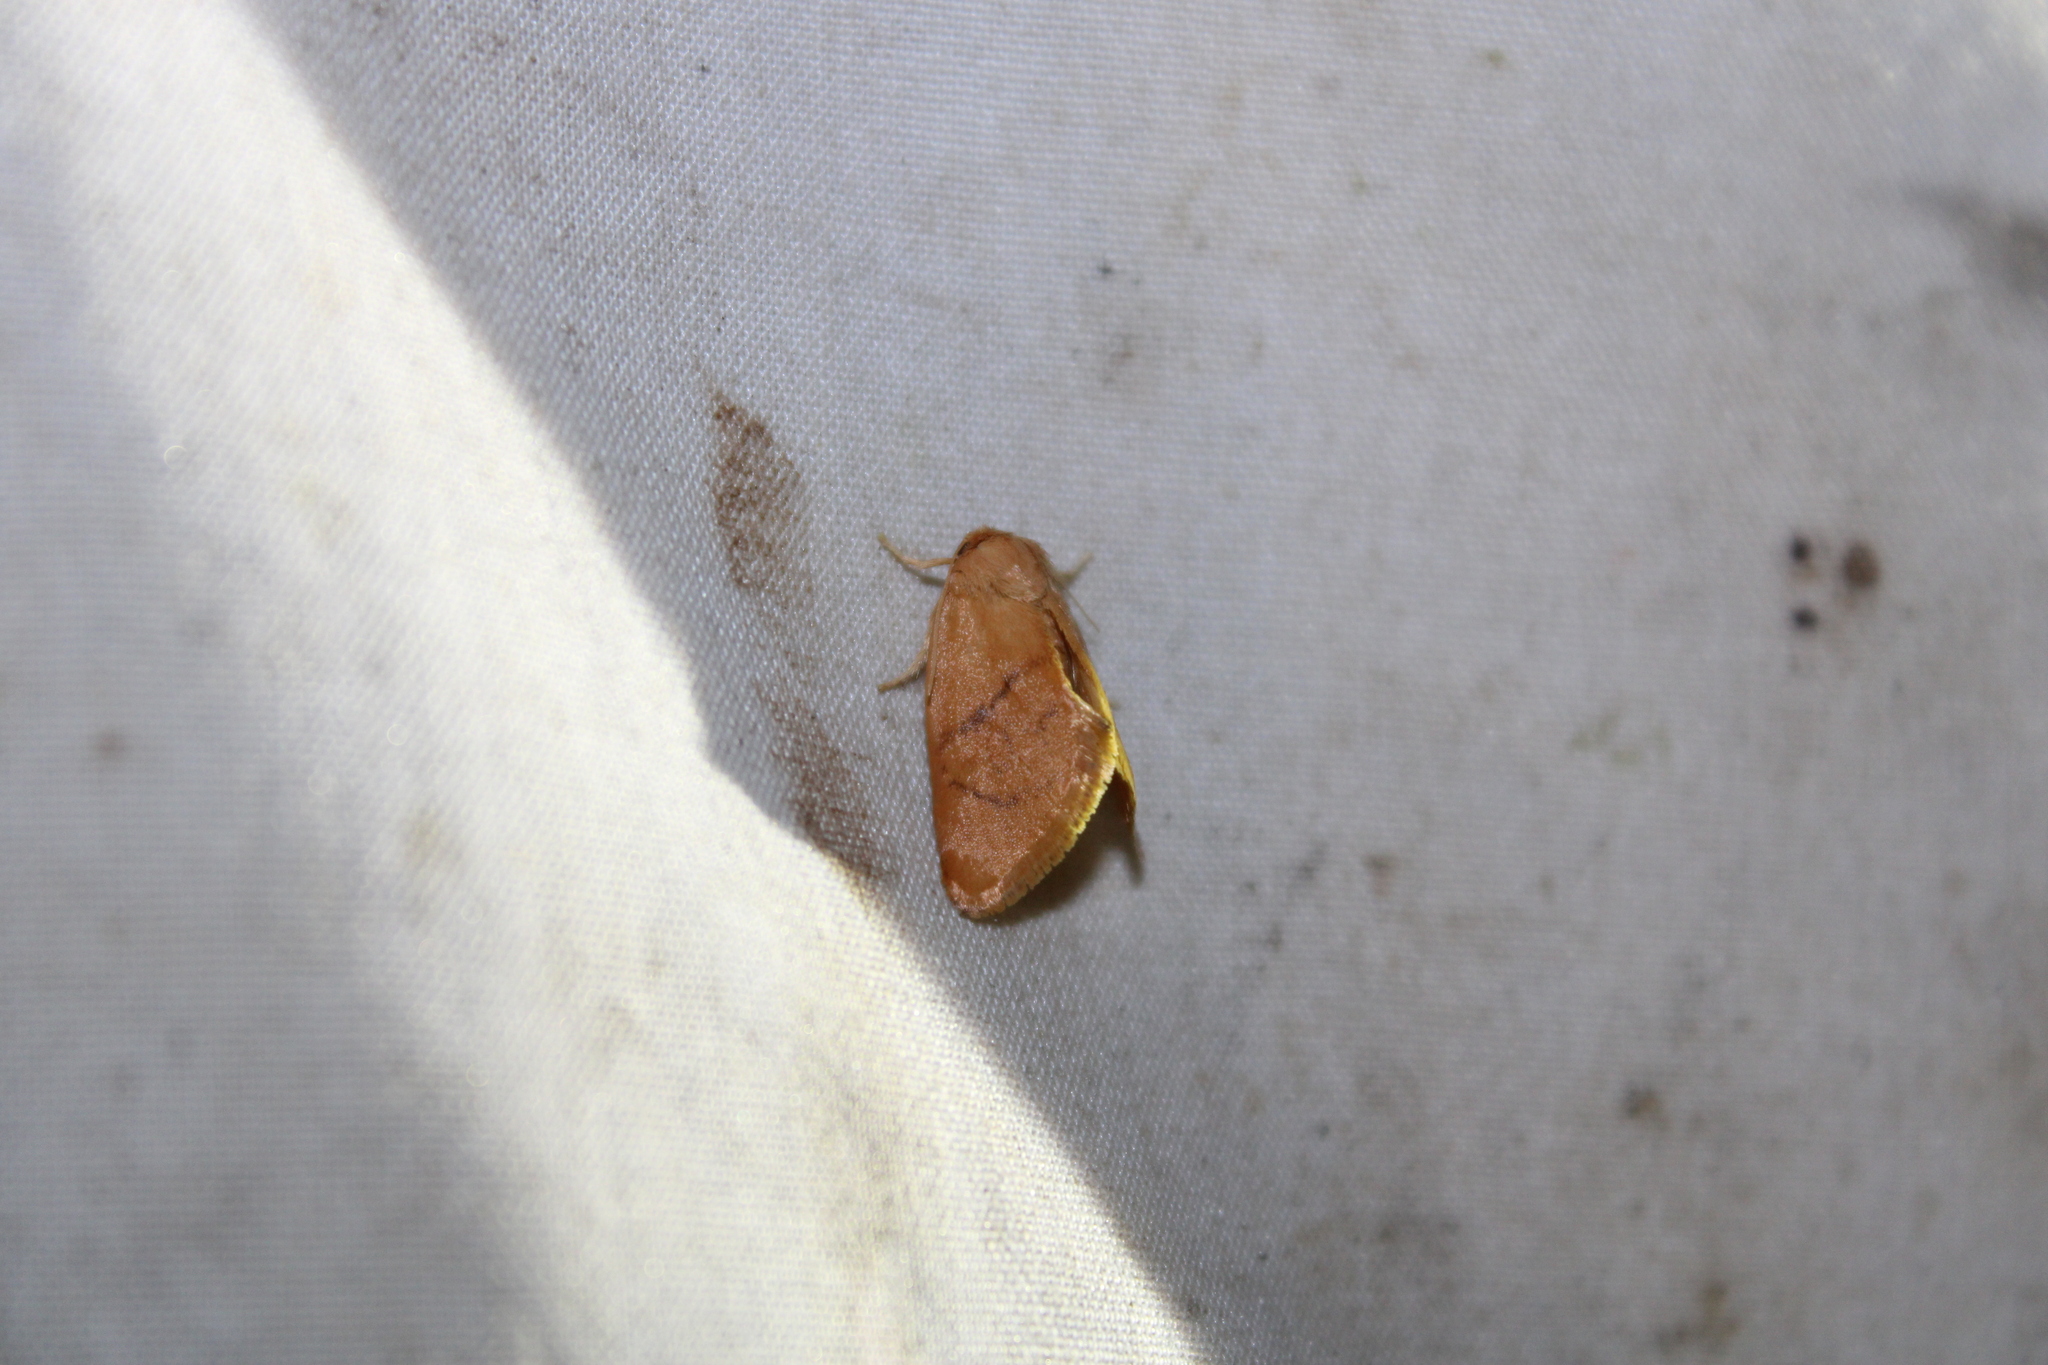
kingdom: Animalia
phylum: Arthropoda
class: Insecta
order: Lepidoptera
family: Limacodidae
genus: Tortricidia
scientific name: Tortricidia flexuosa
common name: Abbreviated button slug moth
